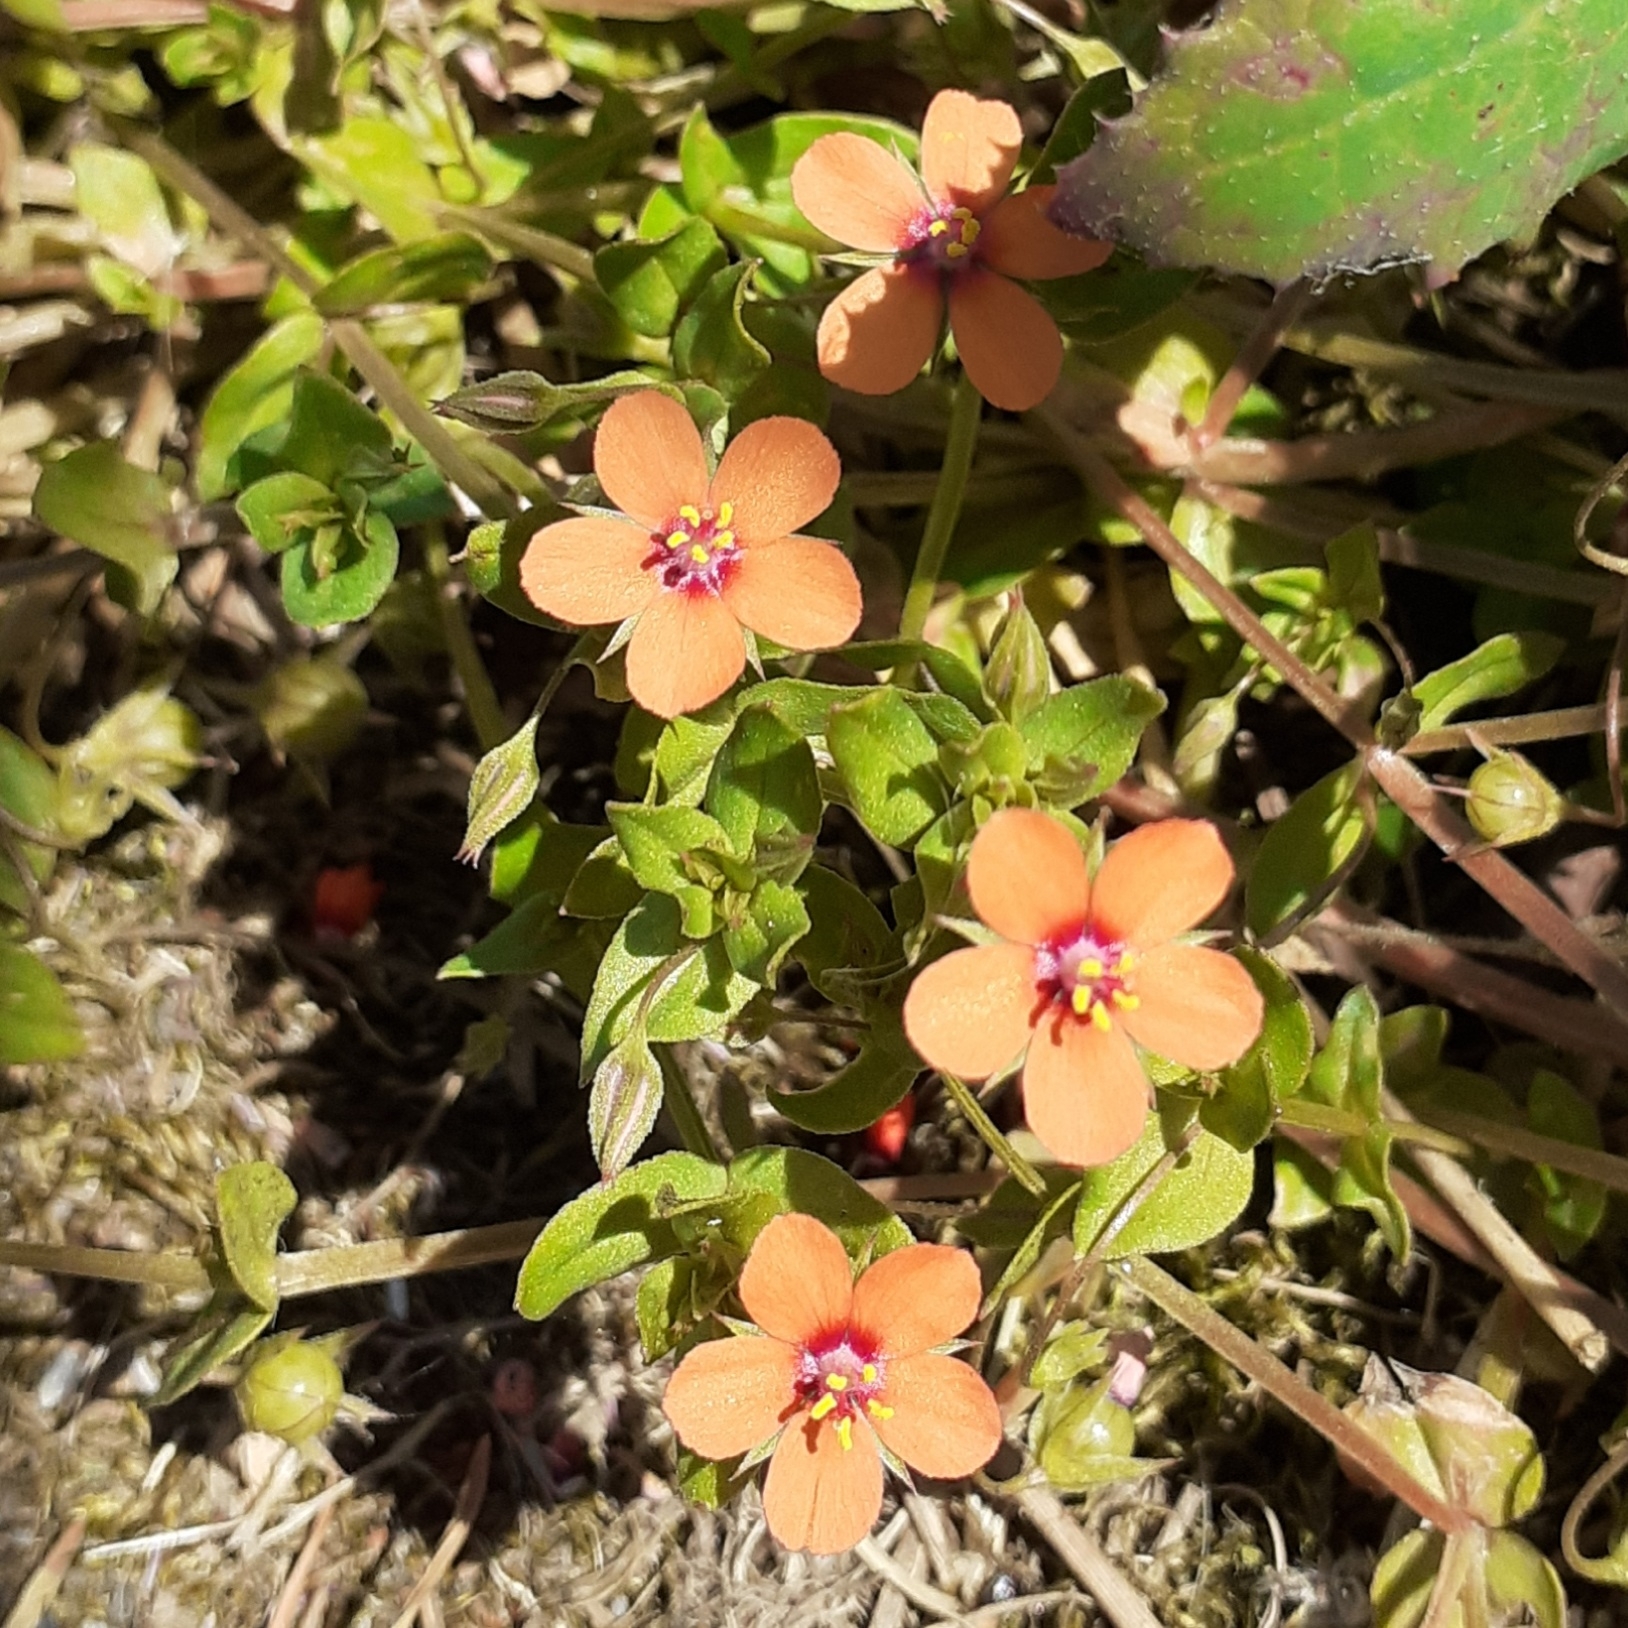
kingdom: Plantae
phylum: Tracheophyta
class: Magnoliopsida
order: Ericales
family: Primulaceae
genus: Lysimachia
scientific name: Lysimachia arvensis
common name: Scarlet pimpernel
